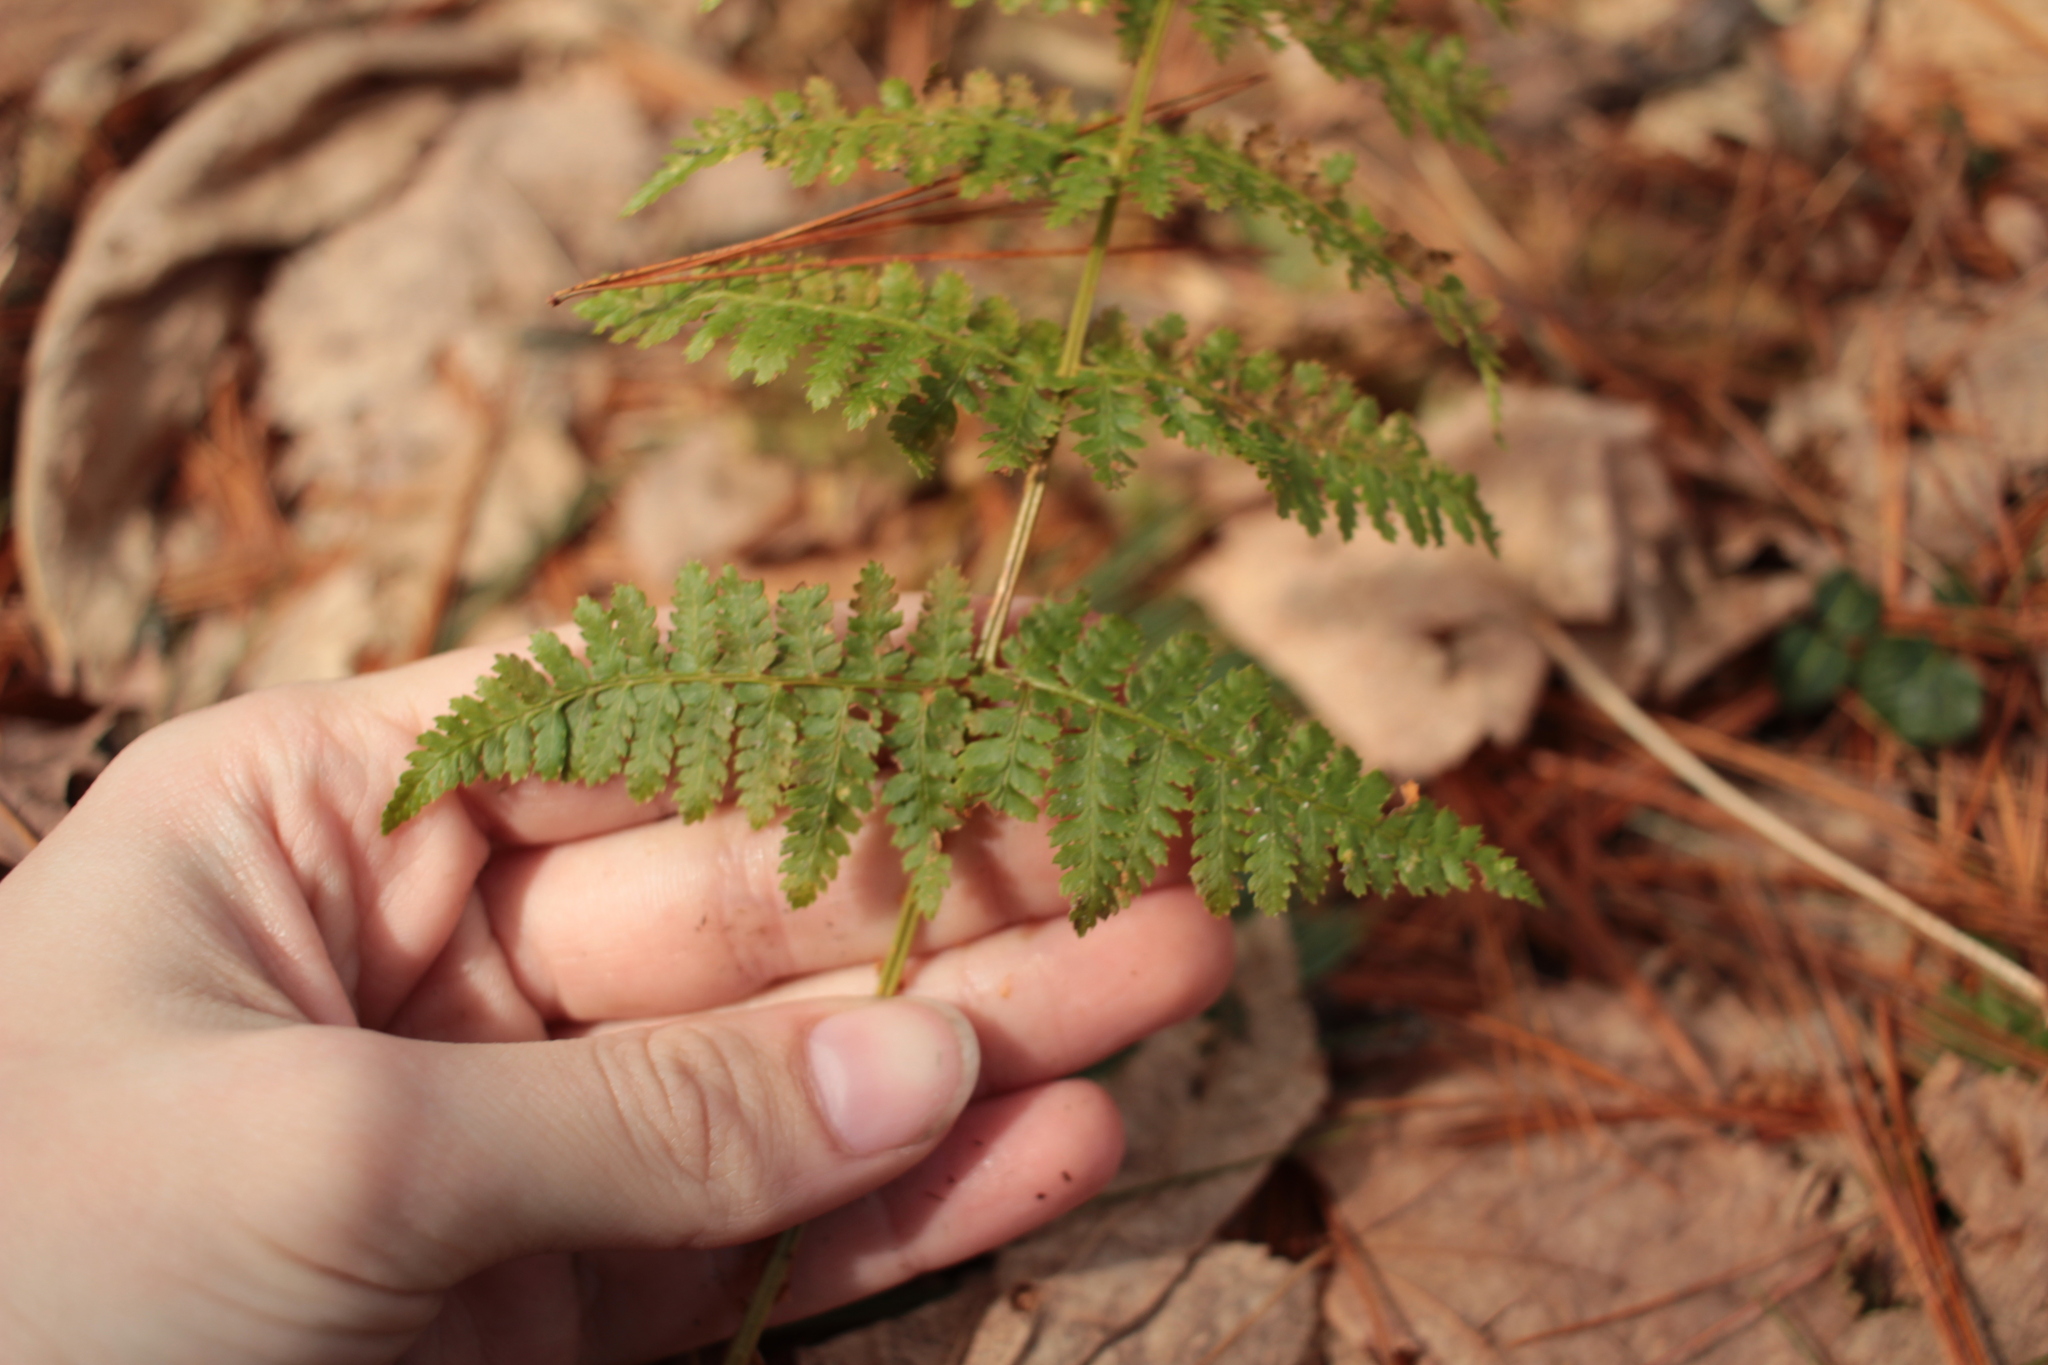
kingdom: Plantae
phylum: Tracheophyta
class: Polypodiopsida
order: Polypodiales
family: Dryopteridaceae
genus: Dryopteris
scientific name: Dryopteris intermedia
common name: Evergreen wood fern
